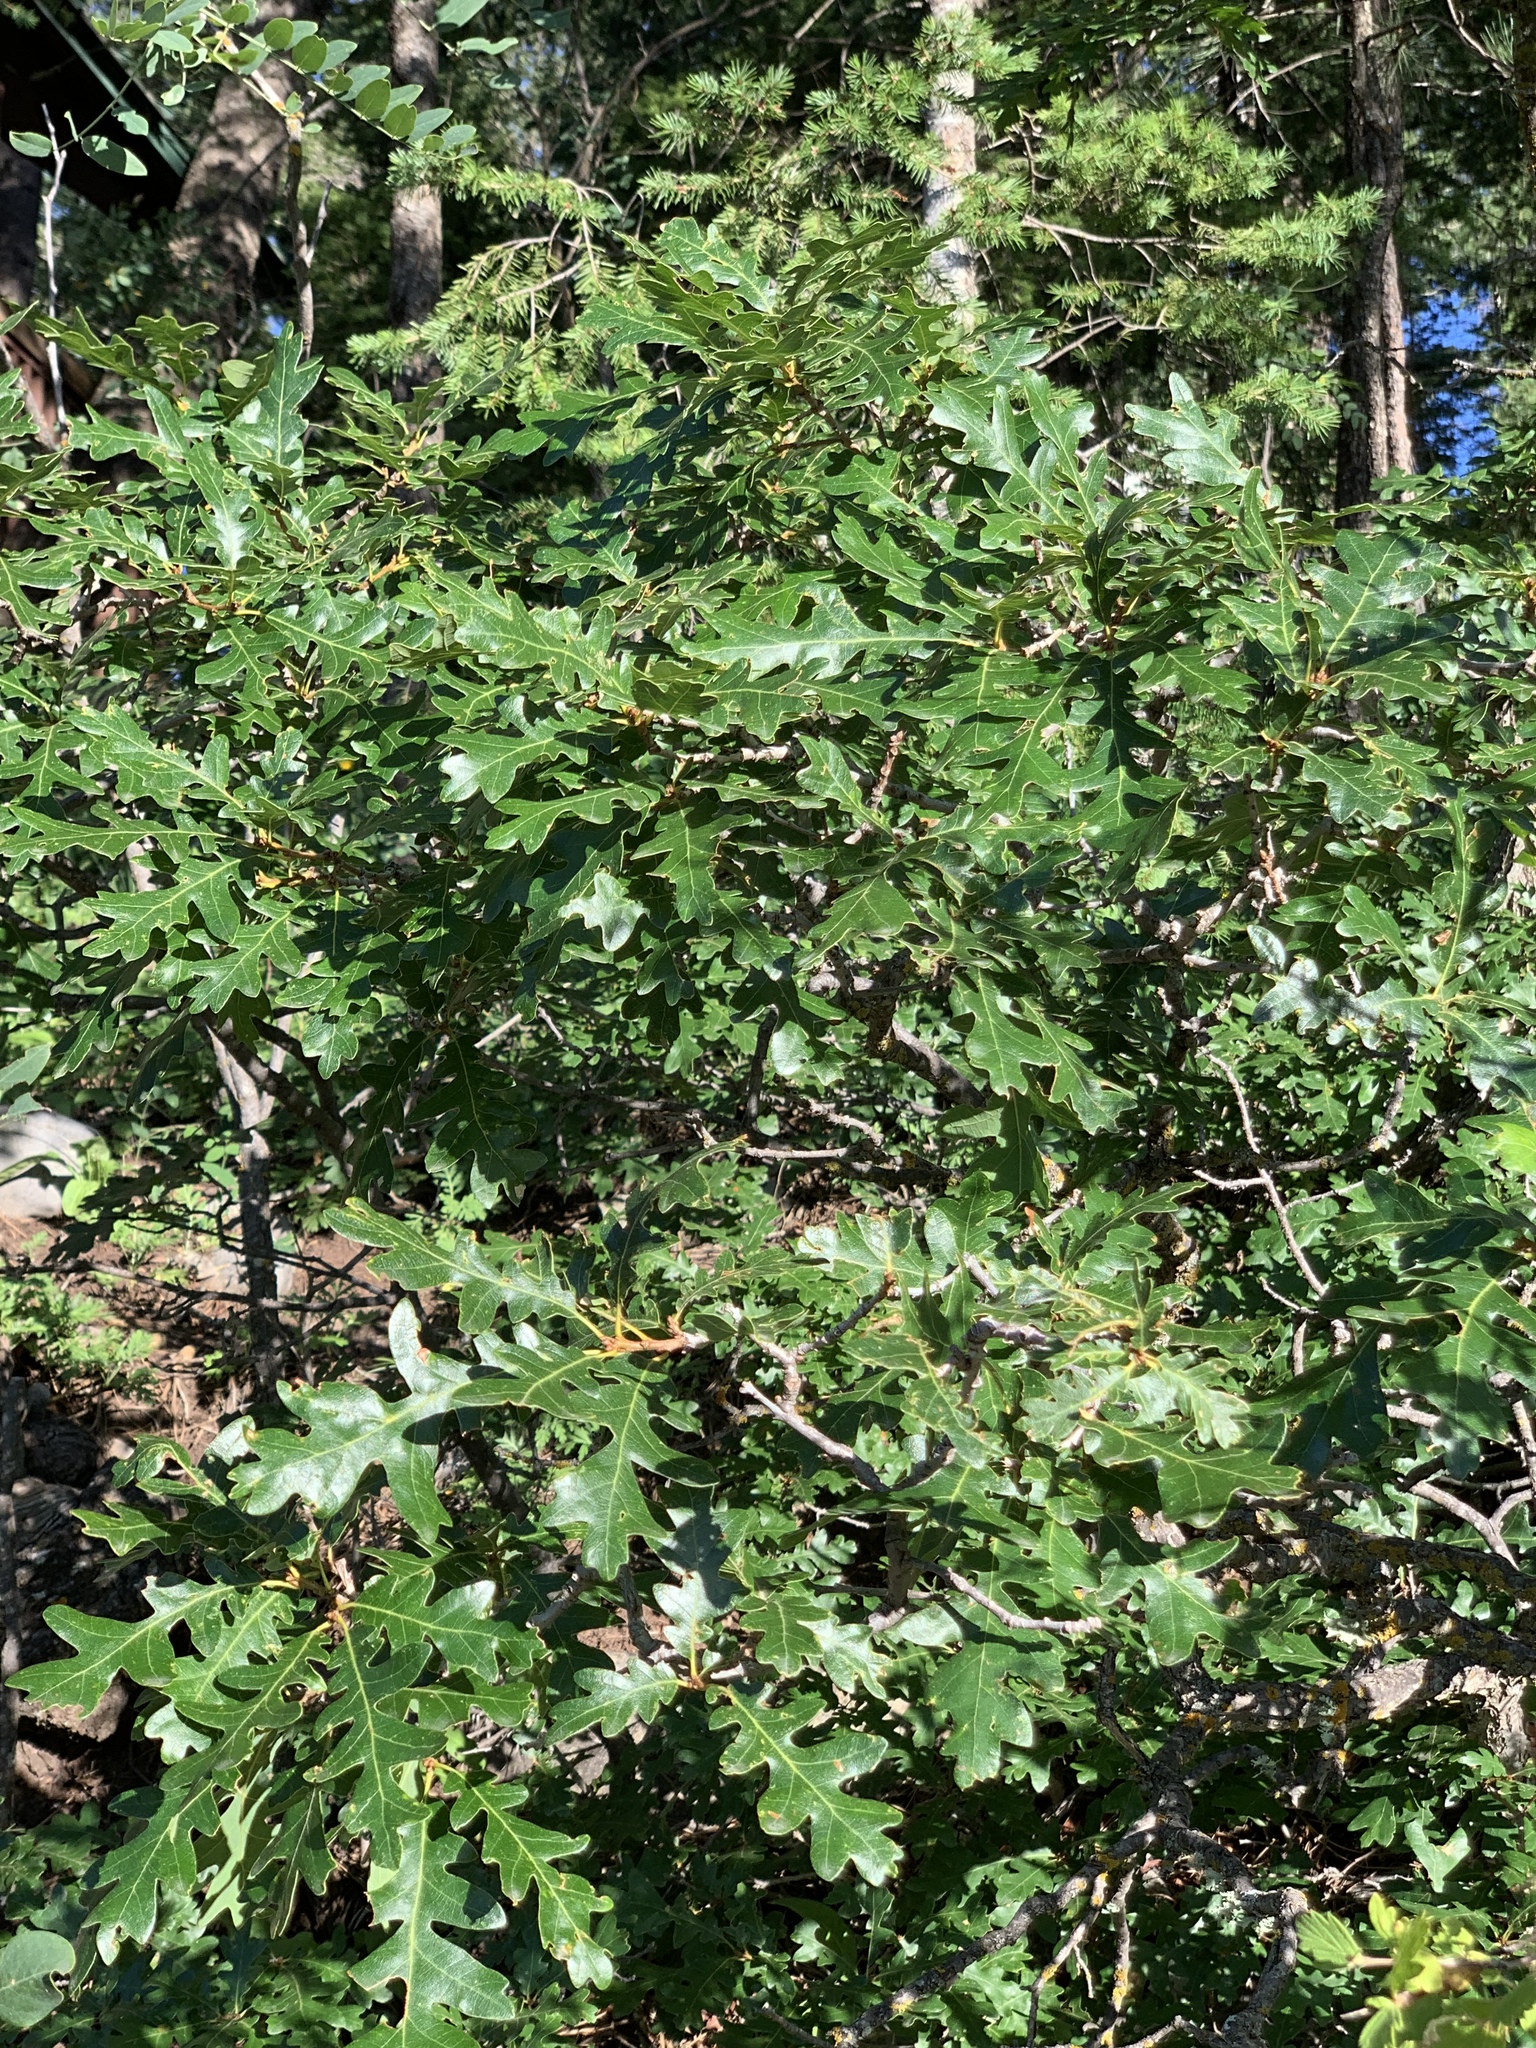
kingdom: Plantae
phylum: Tracheophyta
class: Magnoliopsida
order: Fagales
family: Fagaceae
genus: Quercus
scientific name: Quercus gambelii
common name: Gambel oak
